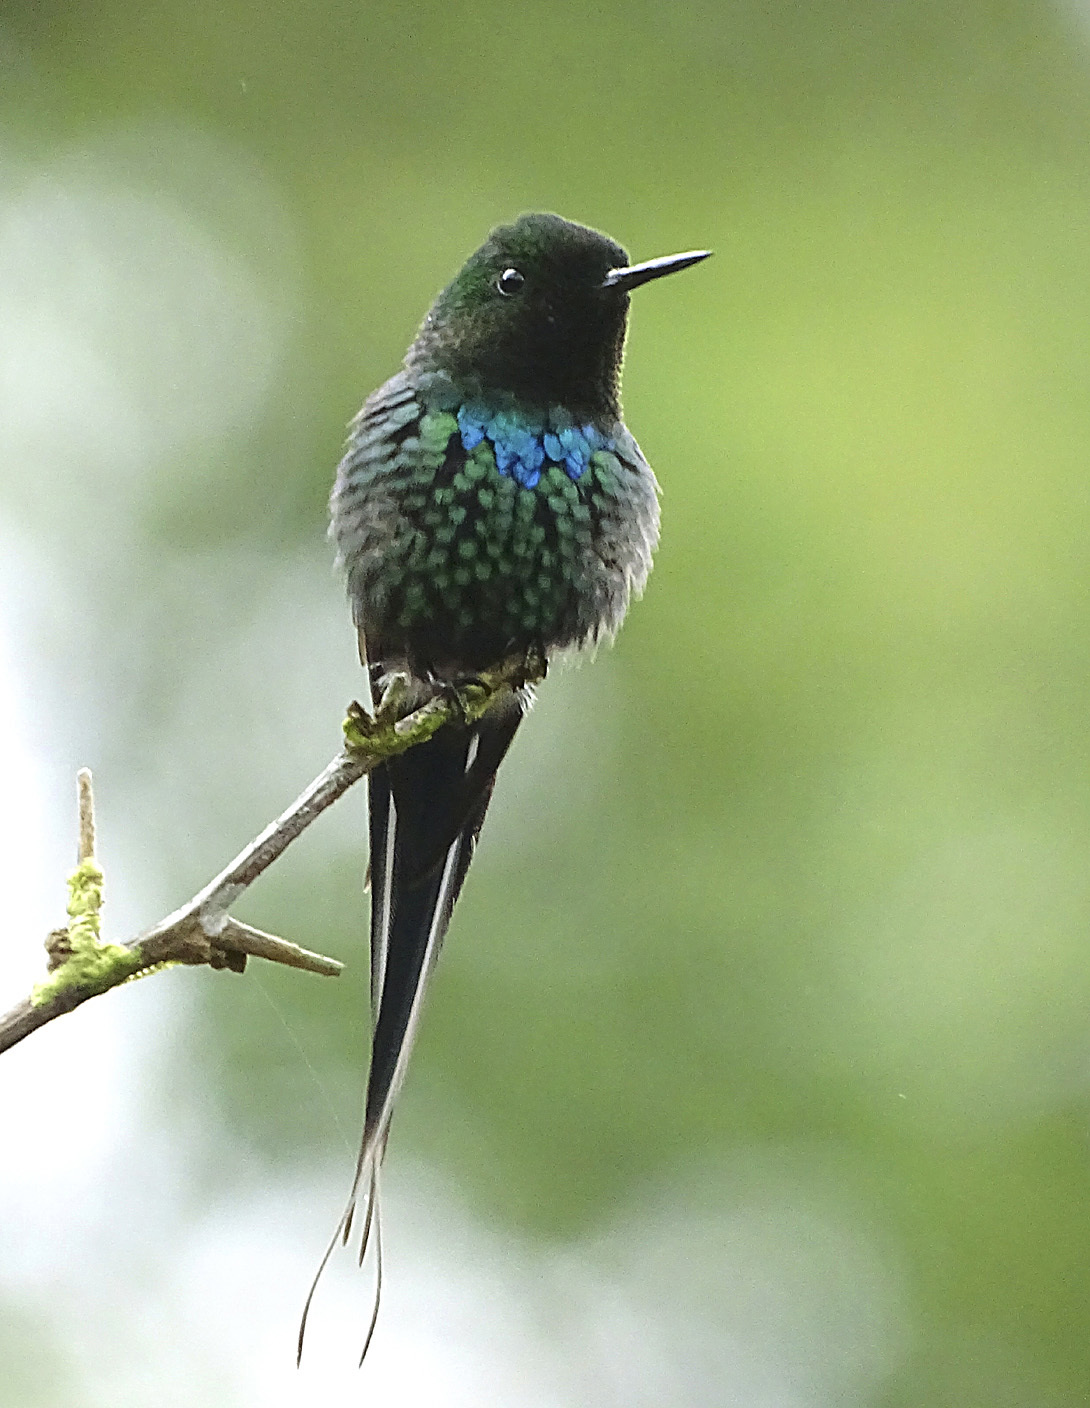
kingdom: Animalia
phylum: Chordata
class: Aves
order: Apodiformes
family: Trochilidae
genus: Discosura
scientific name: Discosura conversii
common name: Green thorntail
